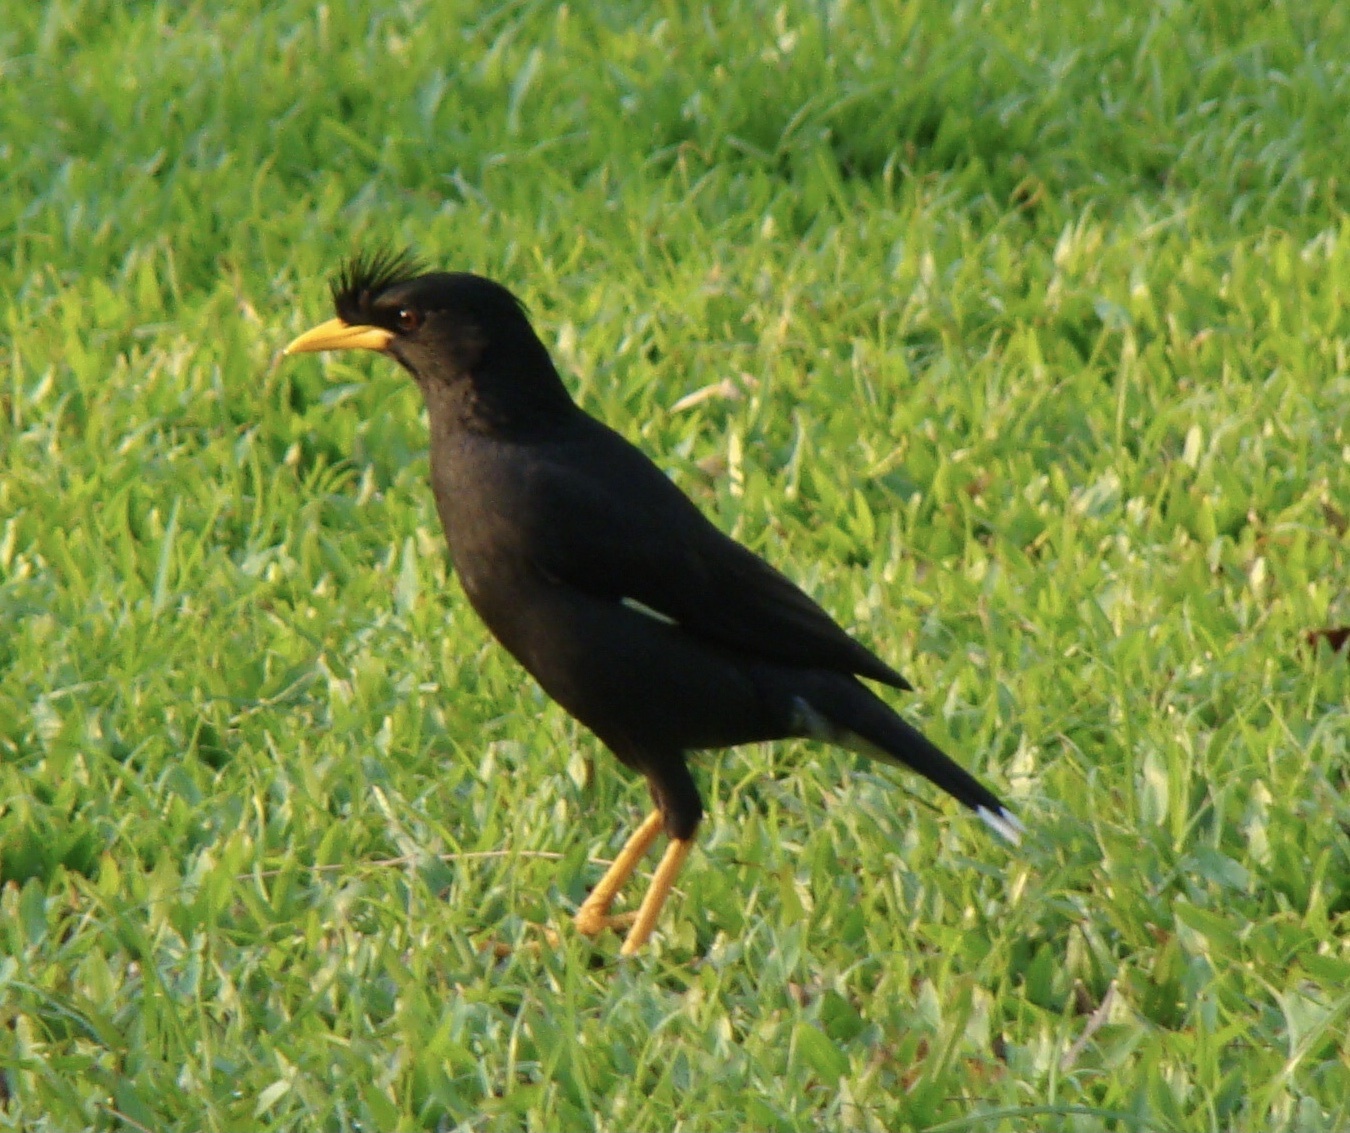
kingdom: Animalia
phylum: Chordata
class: Aves
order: Passeriformes
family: Sturnidae
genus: Acridotheres
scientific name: Acridotheres grandis
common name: Great myna
